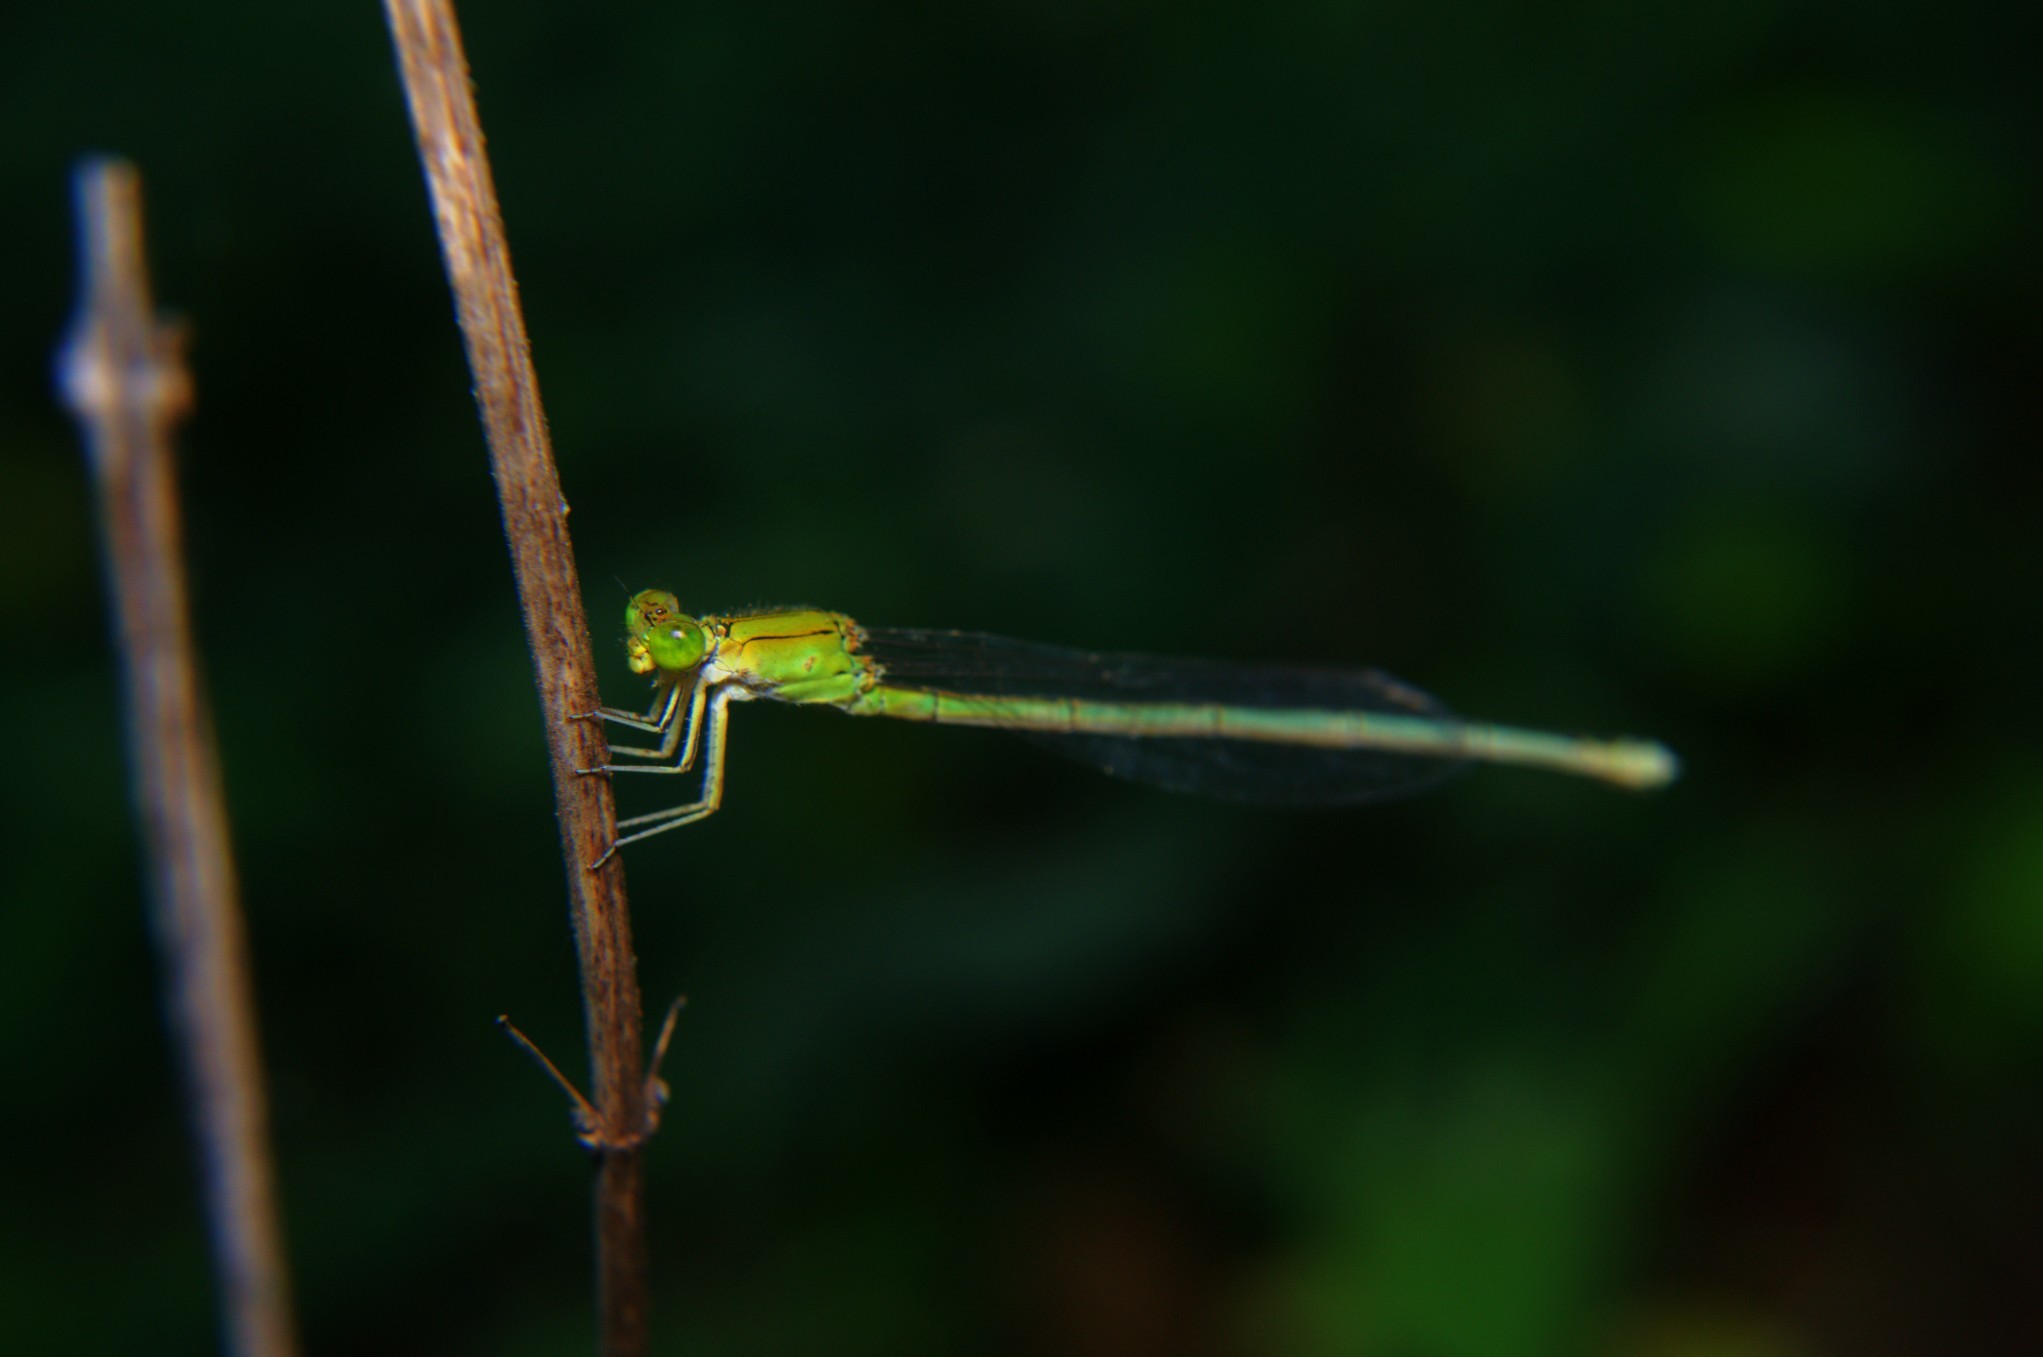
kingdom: Animalia
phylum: Arthropoda
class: Insecta
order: Odonata
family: Coenagrionidae
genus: Pseudagrion
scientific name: Pseudagrion decorum
